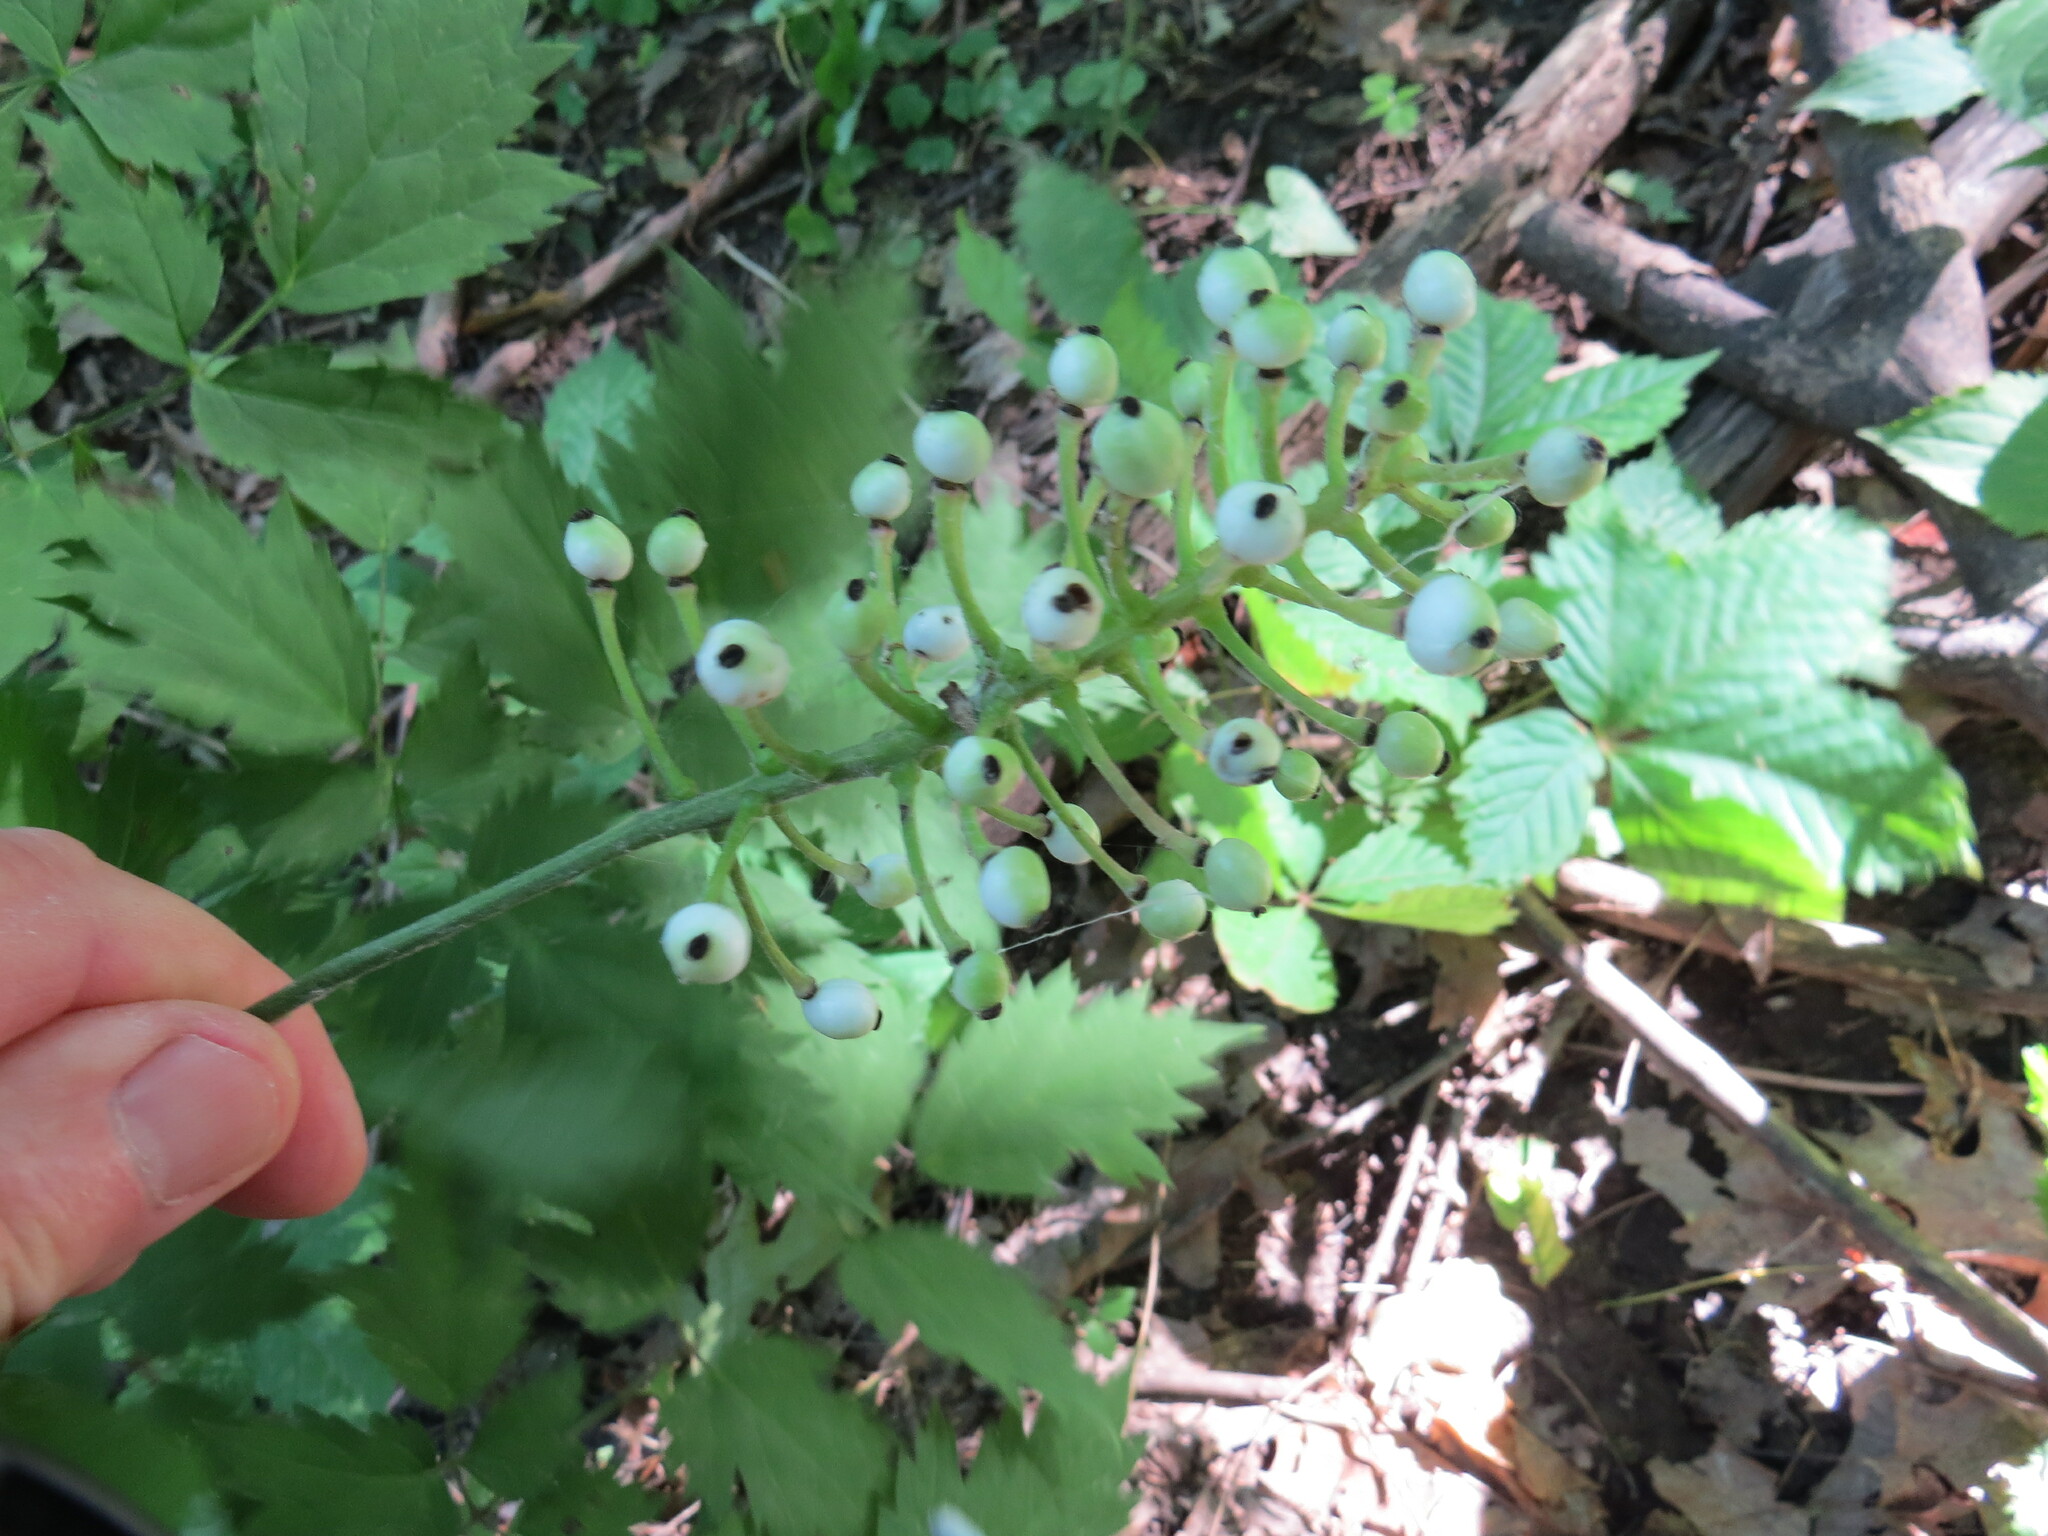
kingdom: Plantae
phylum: Tracheophyta
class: Magnoliopsida
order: Ranunculales
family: Ranunculaceae
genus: Actaea
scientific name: Actaea pachypoda
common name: Doll's-eyes
